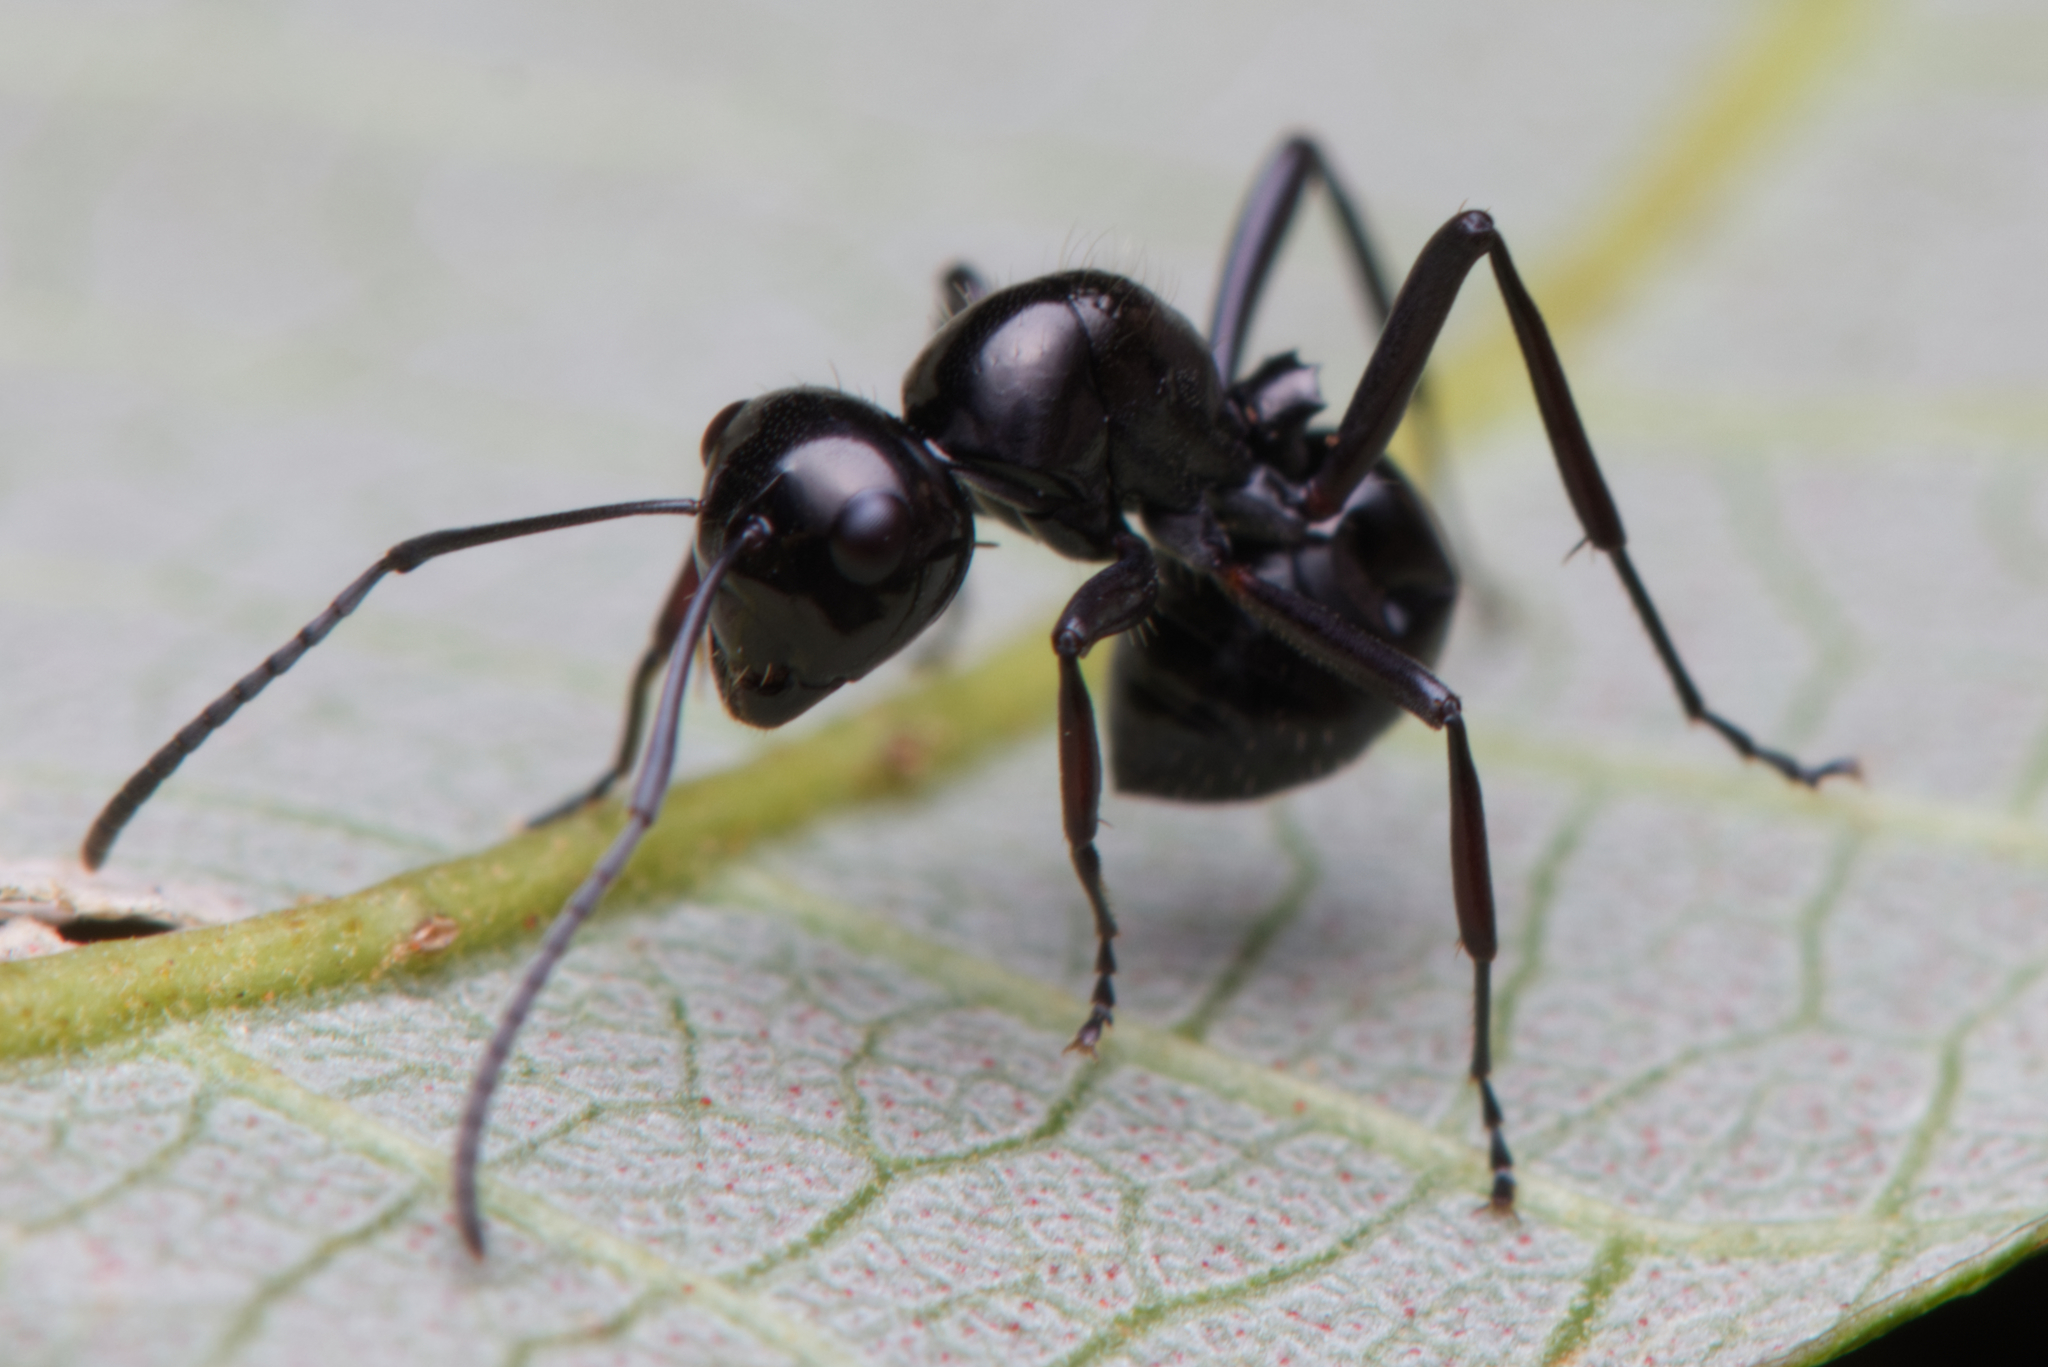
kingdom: Animalia
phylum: Arthropoda
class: Insecta
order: Hymenoptera
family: Formicidae
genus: Polyrhachis
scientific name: Polyrhachis pilosa
